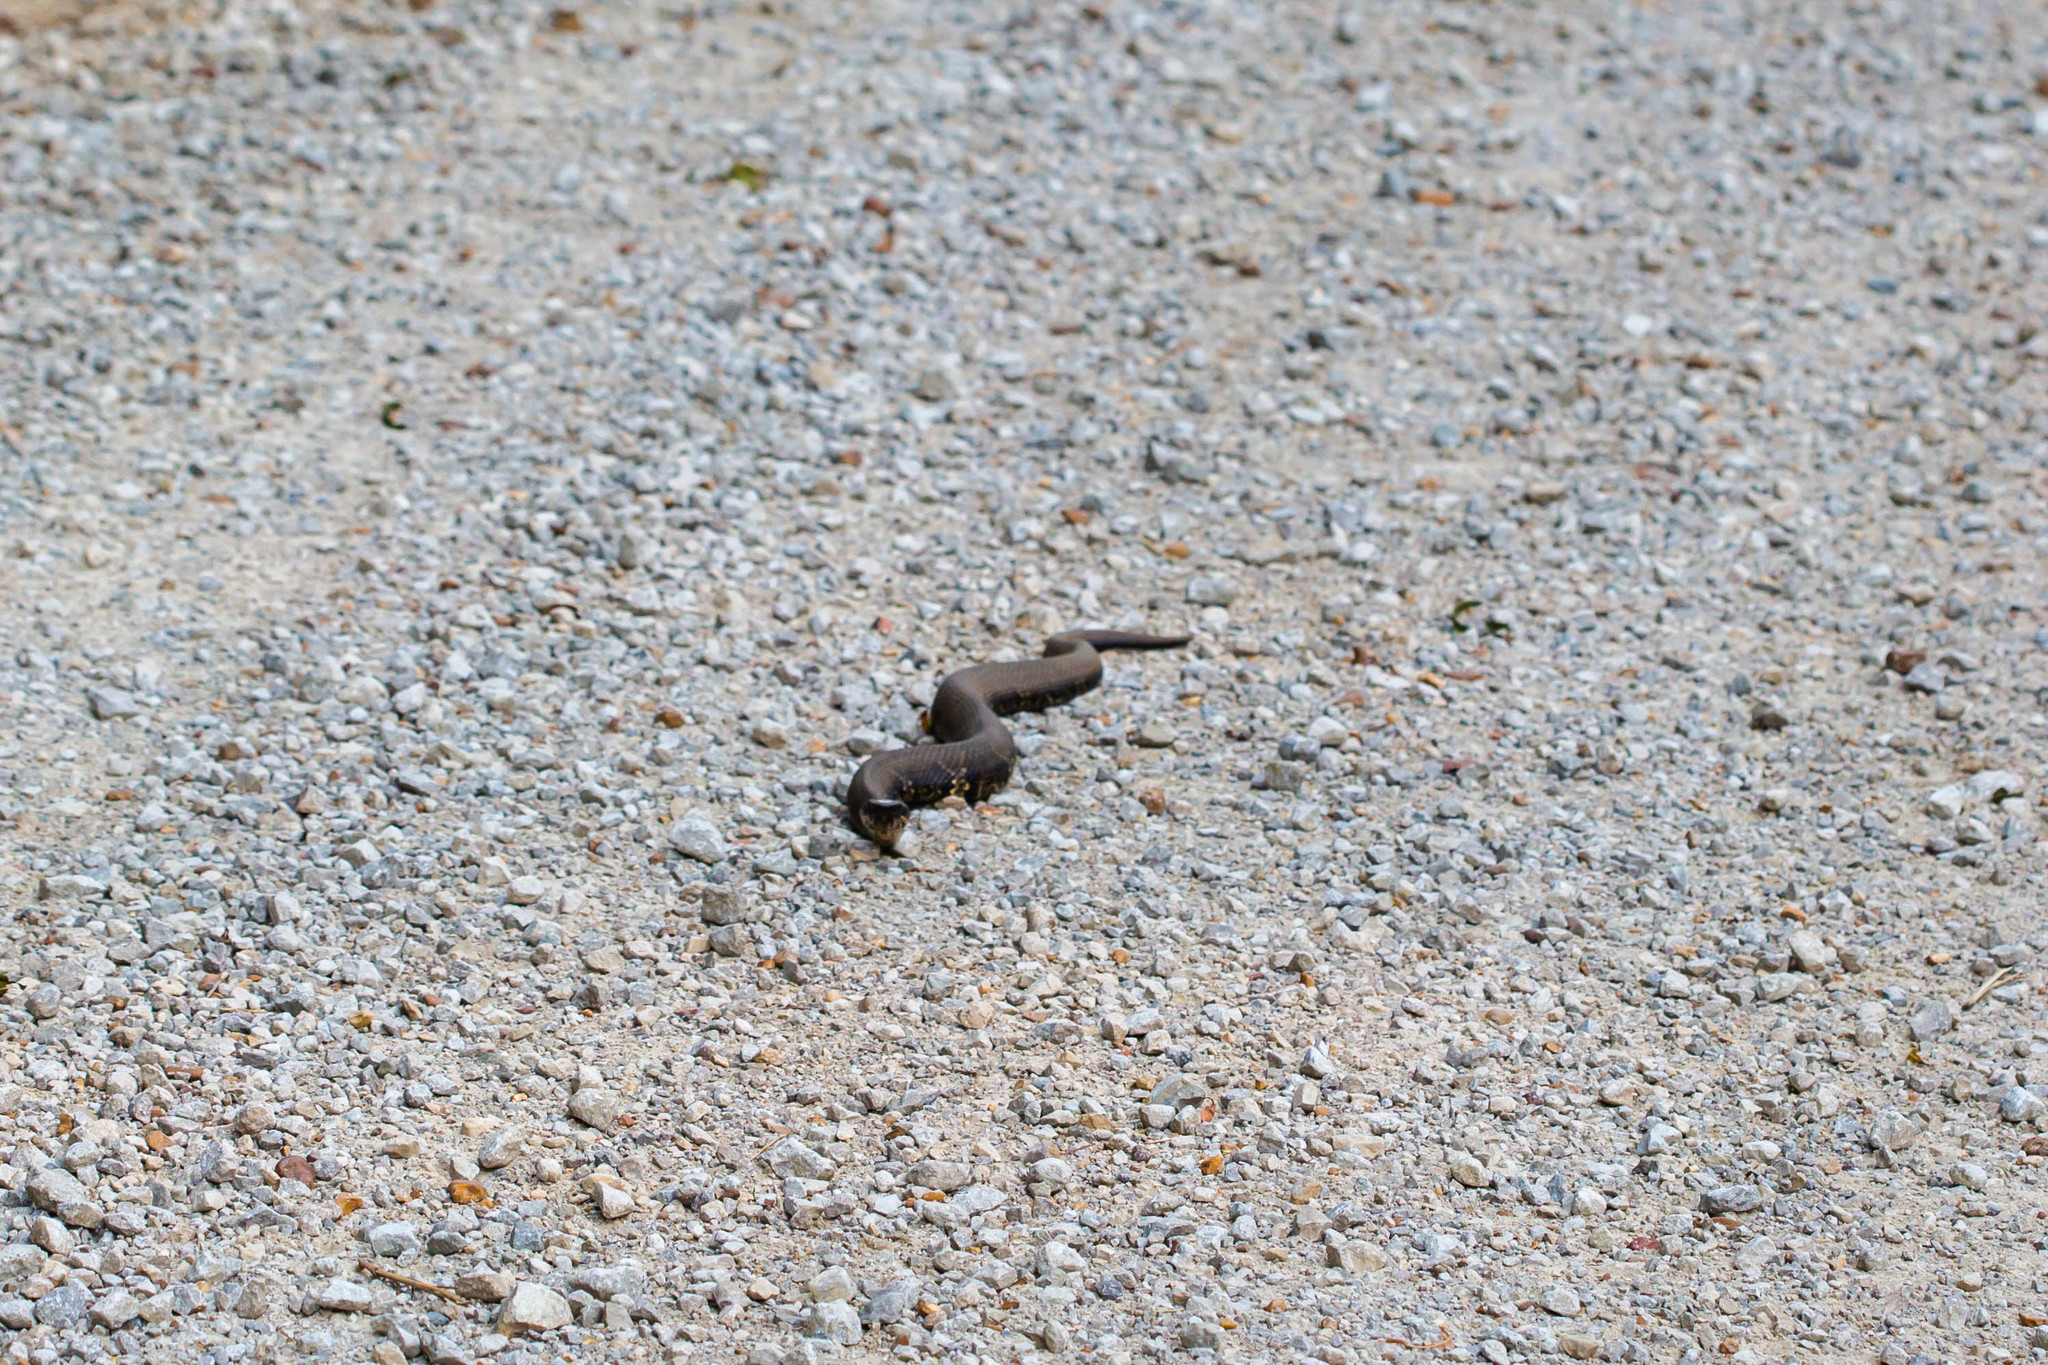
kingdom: Animalia
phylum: Chordata
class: Squamata
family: Viperidae
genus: Agkistrodon
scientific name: Agkistrodon piscivorus
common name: Cottonmouth
